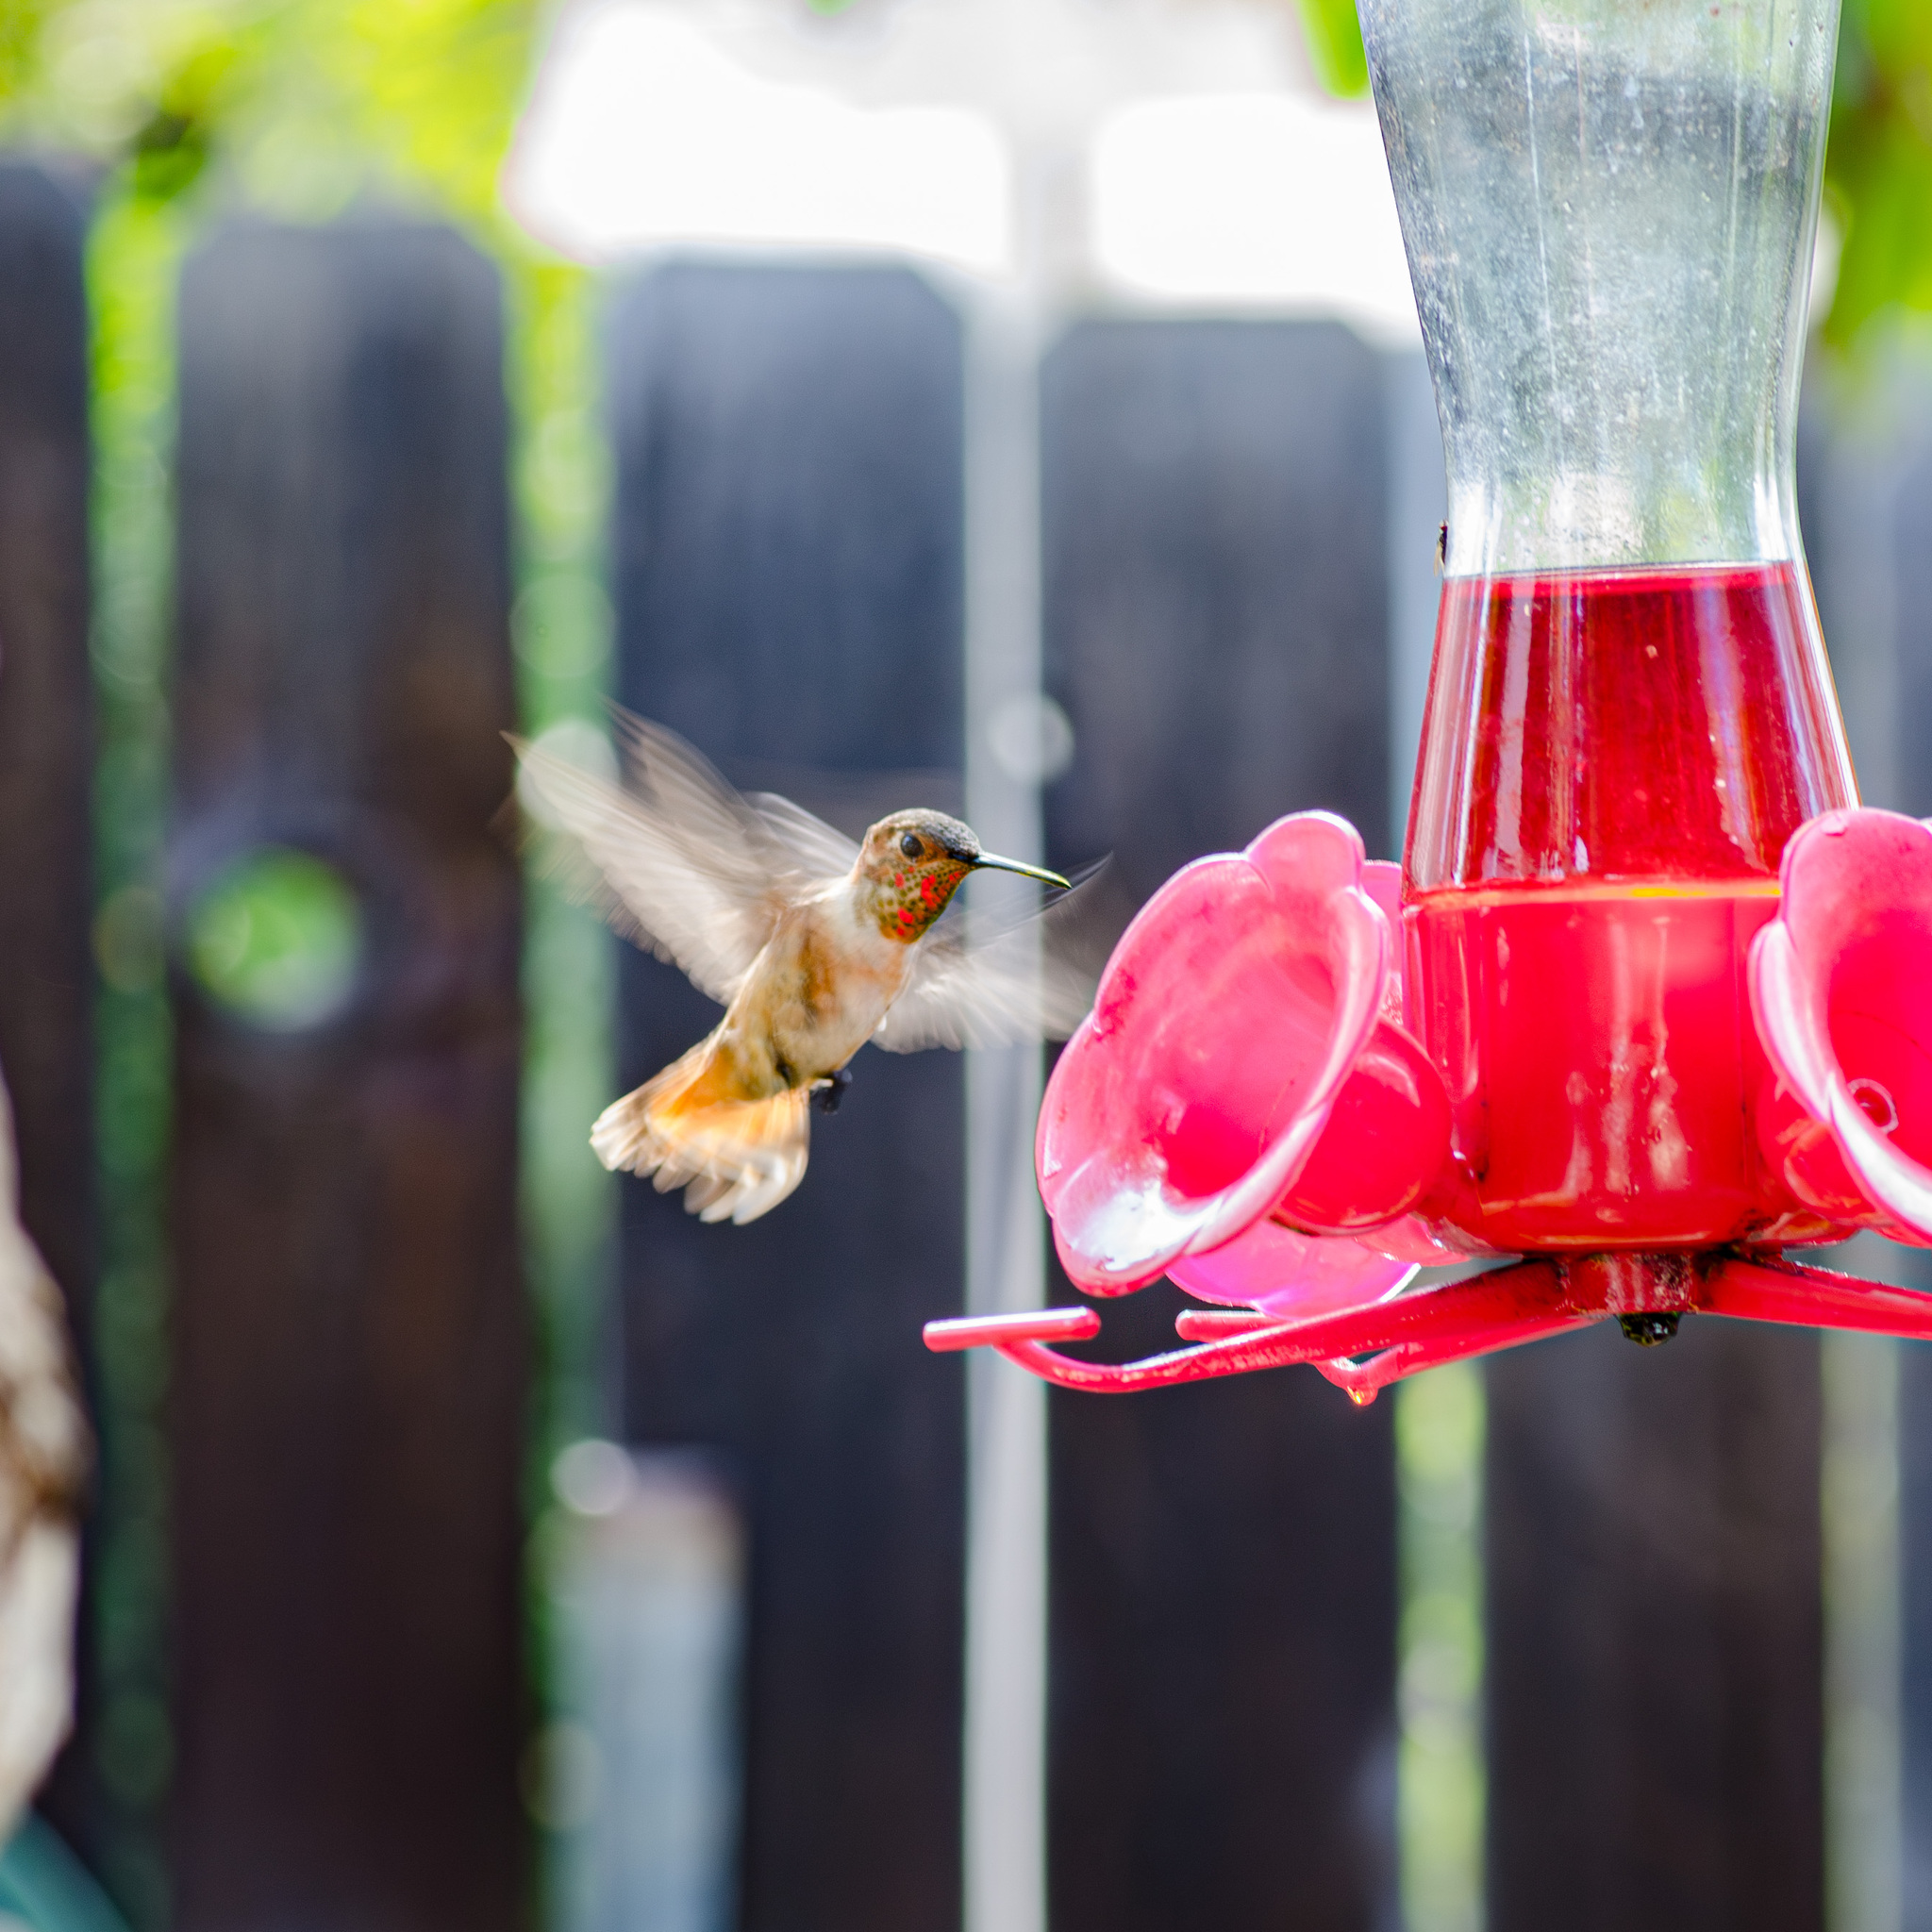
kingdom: Animalia
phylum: Chordata
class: Aves
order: Apodiformes
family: Trochilidae
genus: Selasphorus
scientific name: Selasphorus
